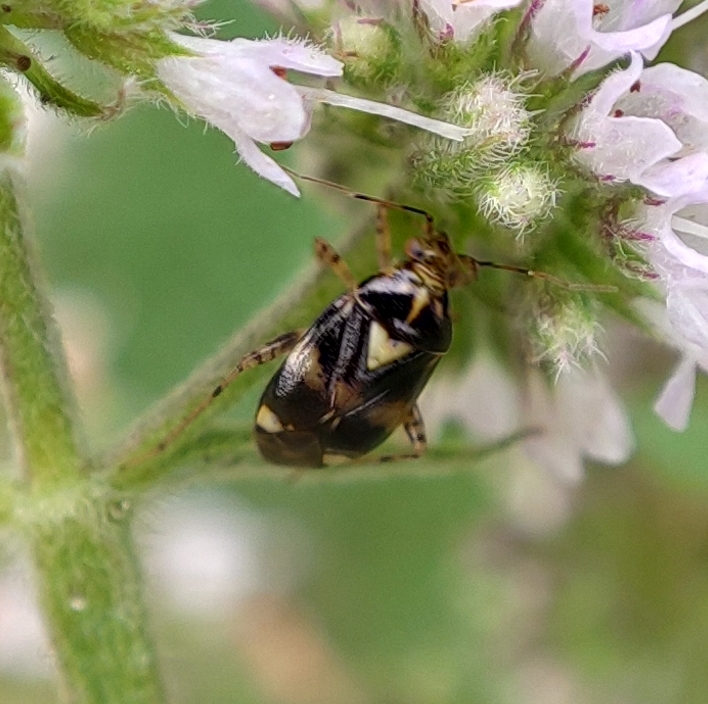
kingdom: Animalia
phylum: Arthropoda
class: Insecta
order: Hemiptera
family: Miridae
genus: Liocoris
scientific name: Liocoris tripustulatus
